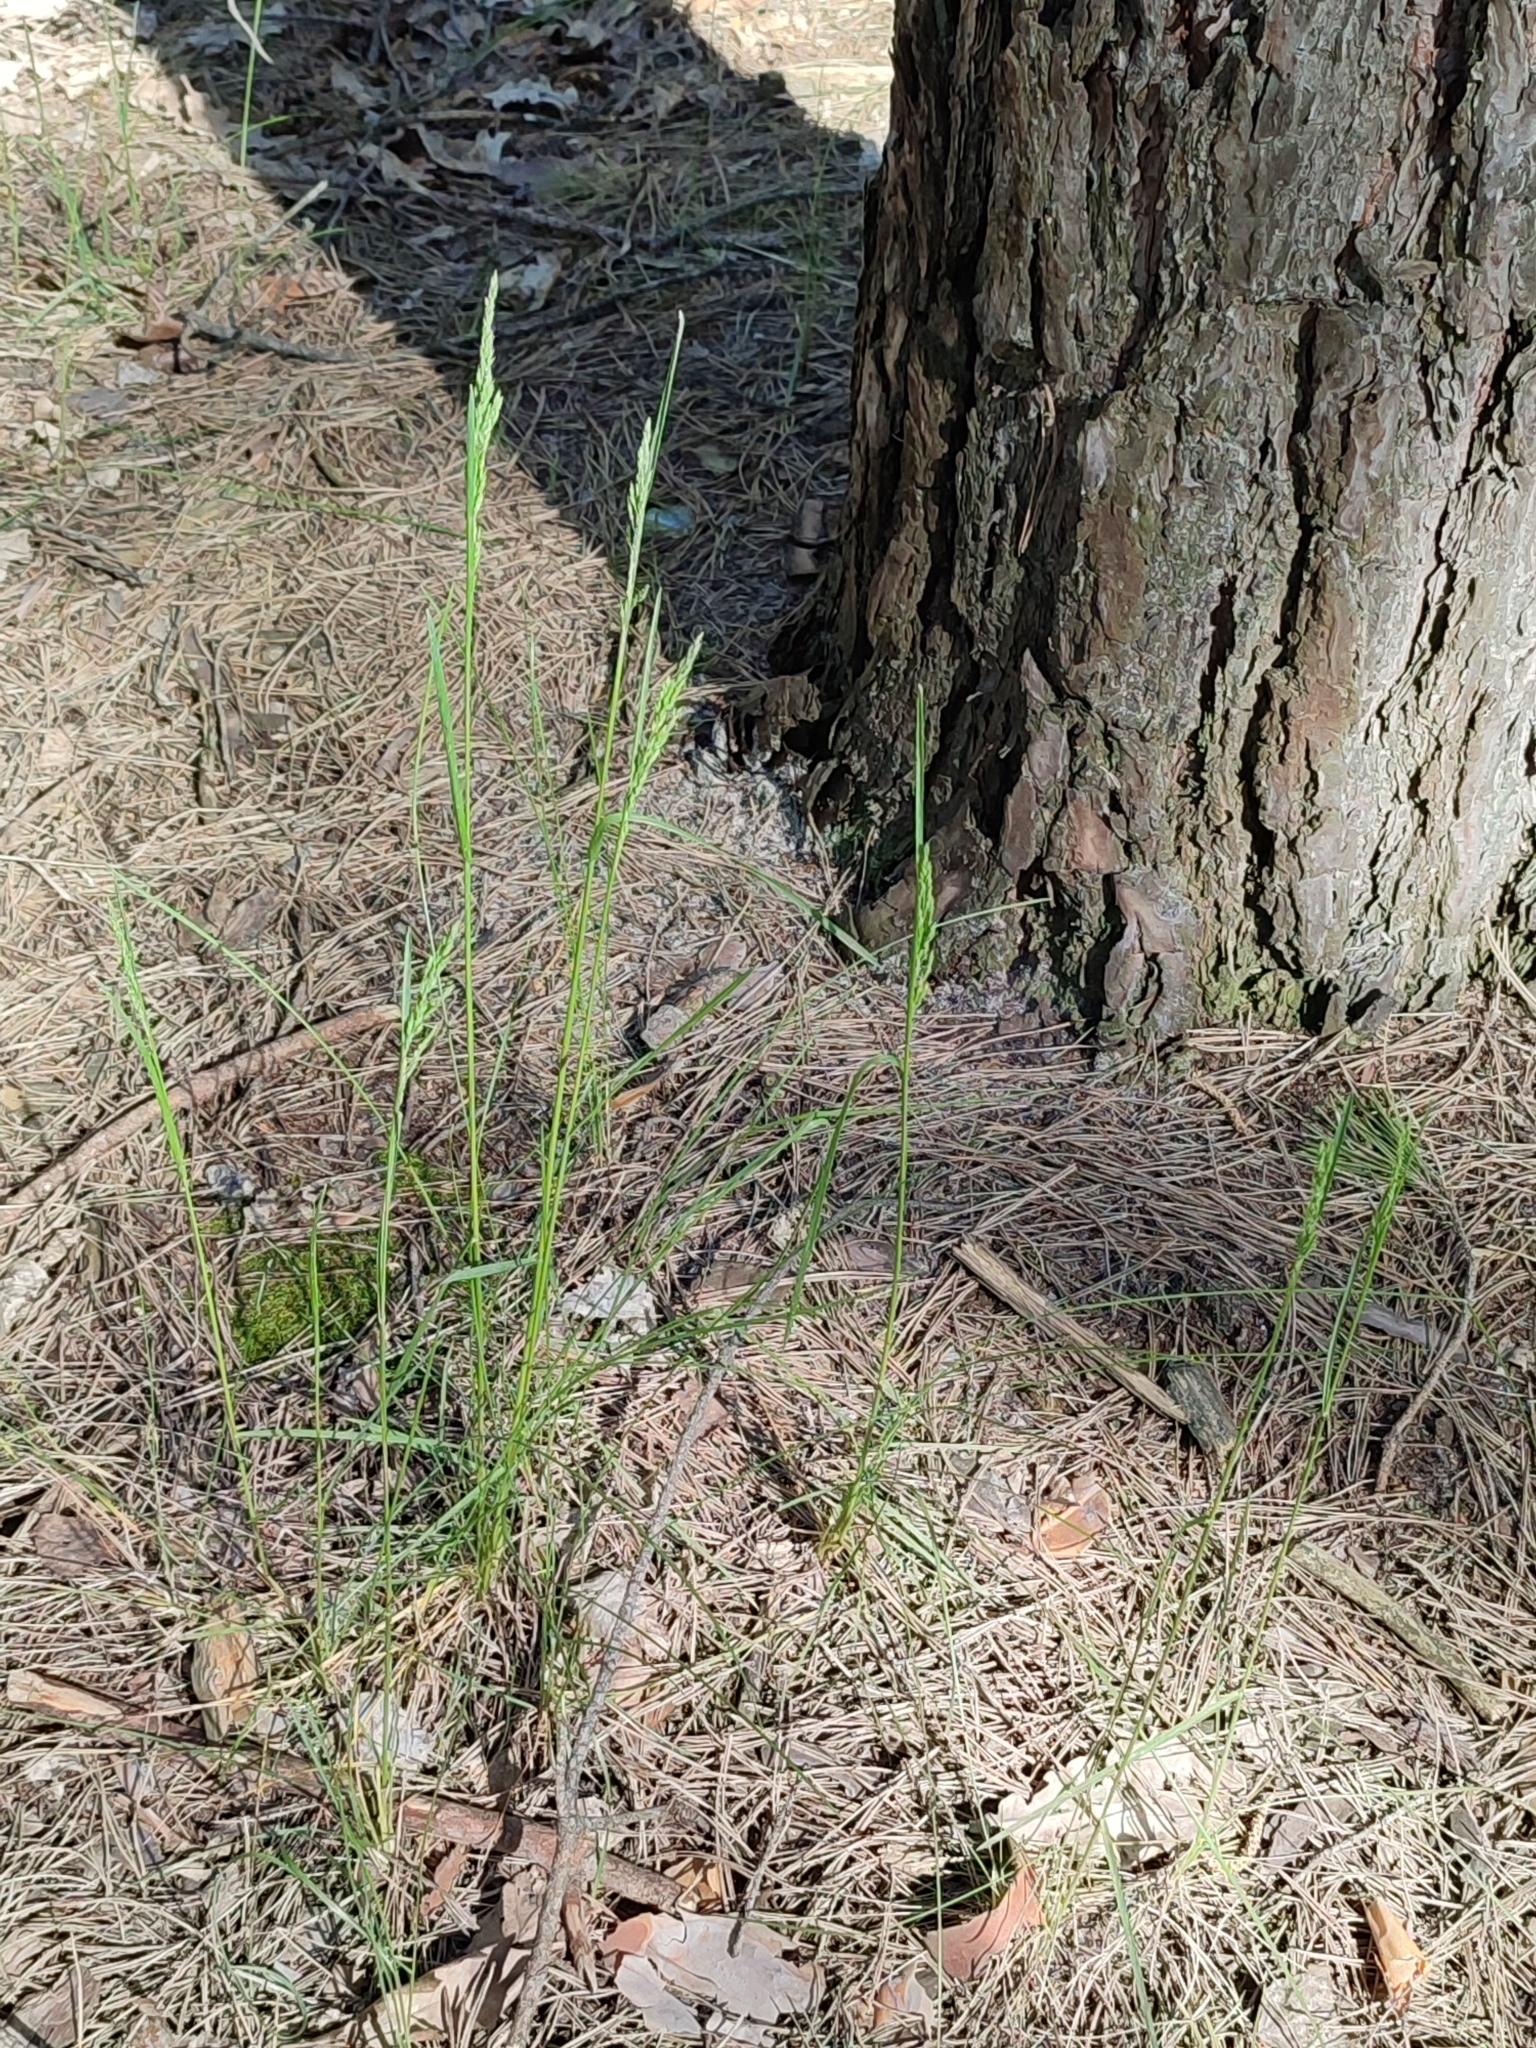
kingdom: Plantae
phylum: Tracheophyta
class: Liliopsida
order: Poales
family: Poaceae
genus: Poa
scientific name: Poa angustifolia
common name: Narrow-leaved meadow-grass
